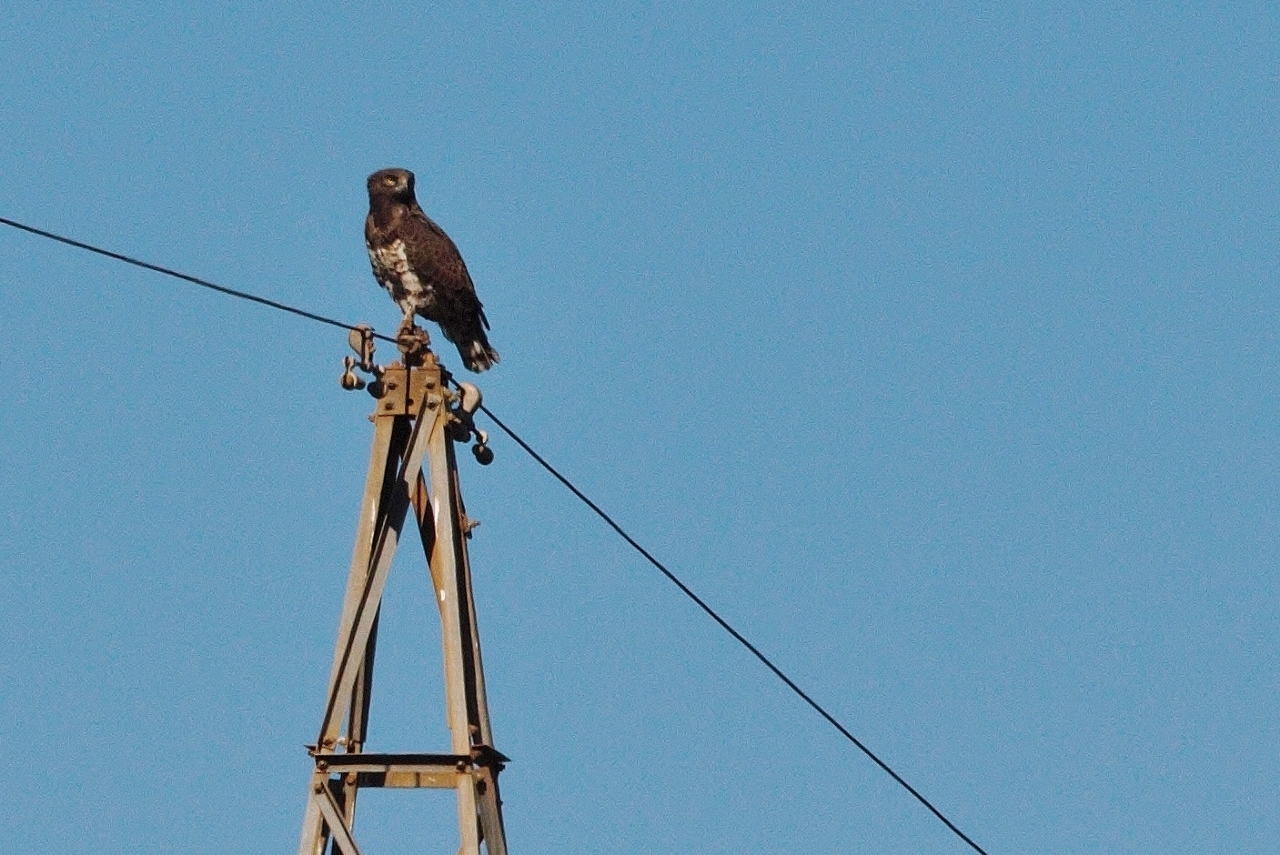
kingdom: Animalia
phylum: Chordata
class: Aves
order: Accipitriformes
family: Accipitridae
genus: Circaetus
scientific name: Circaetus pectoralis
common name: Black-chested snake eagle
